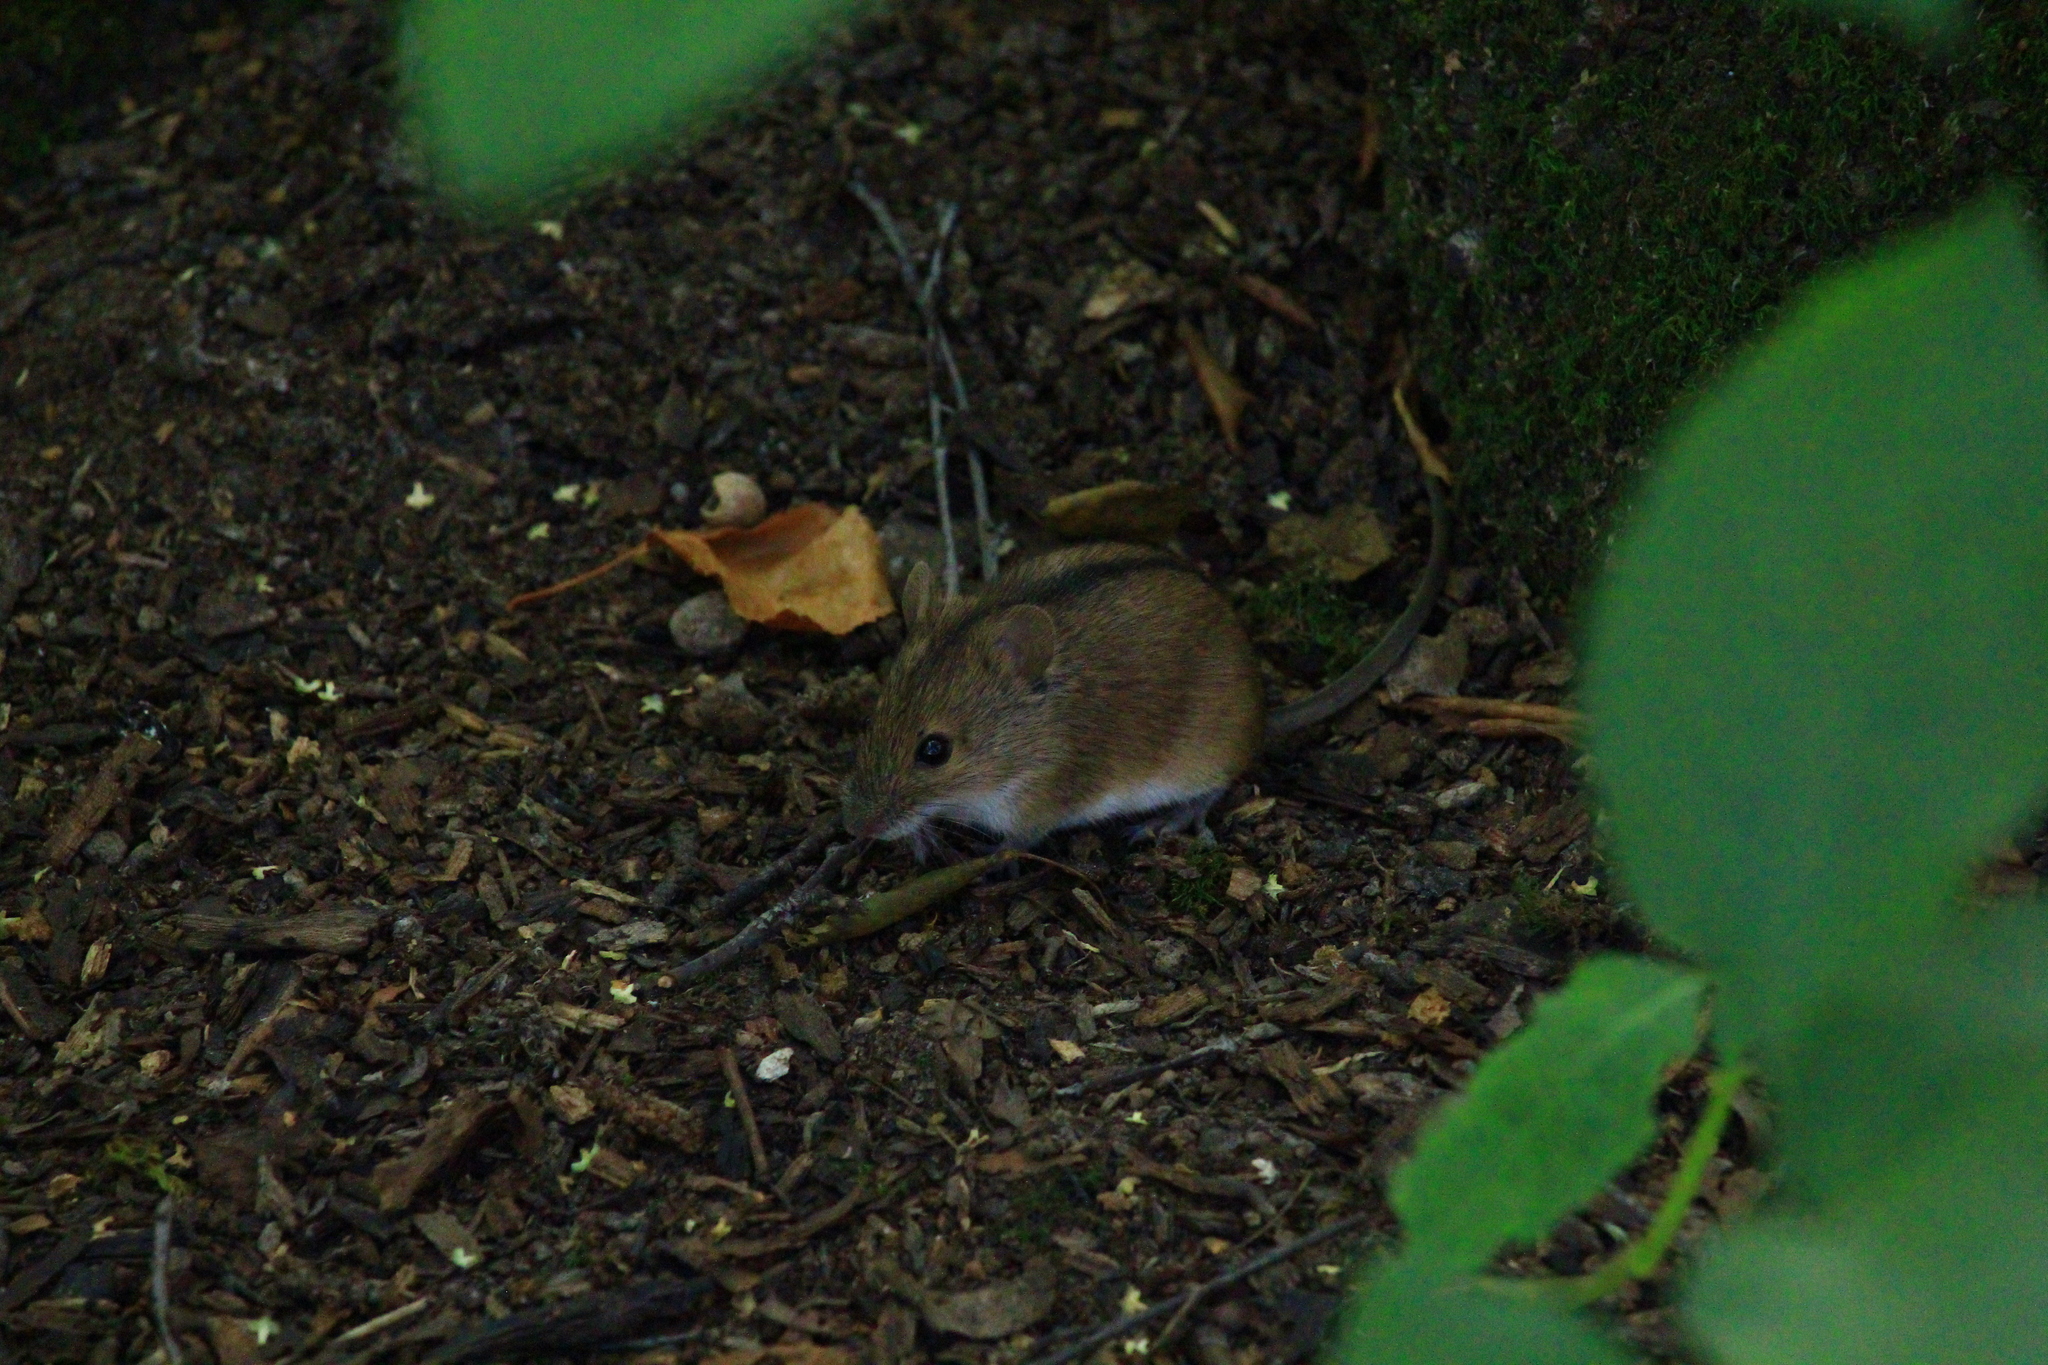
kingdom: Animalia
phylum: Chordata
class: Mammalia
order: Rodentia
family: Muridae
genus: Apodemus
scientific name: Apodemus agrarius
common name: Striped field mouse
